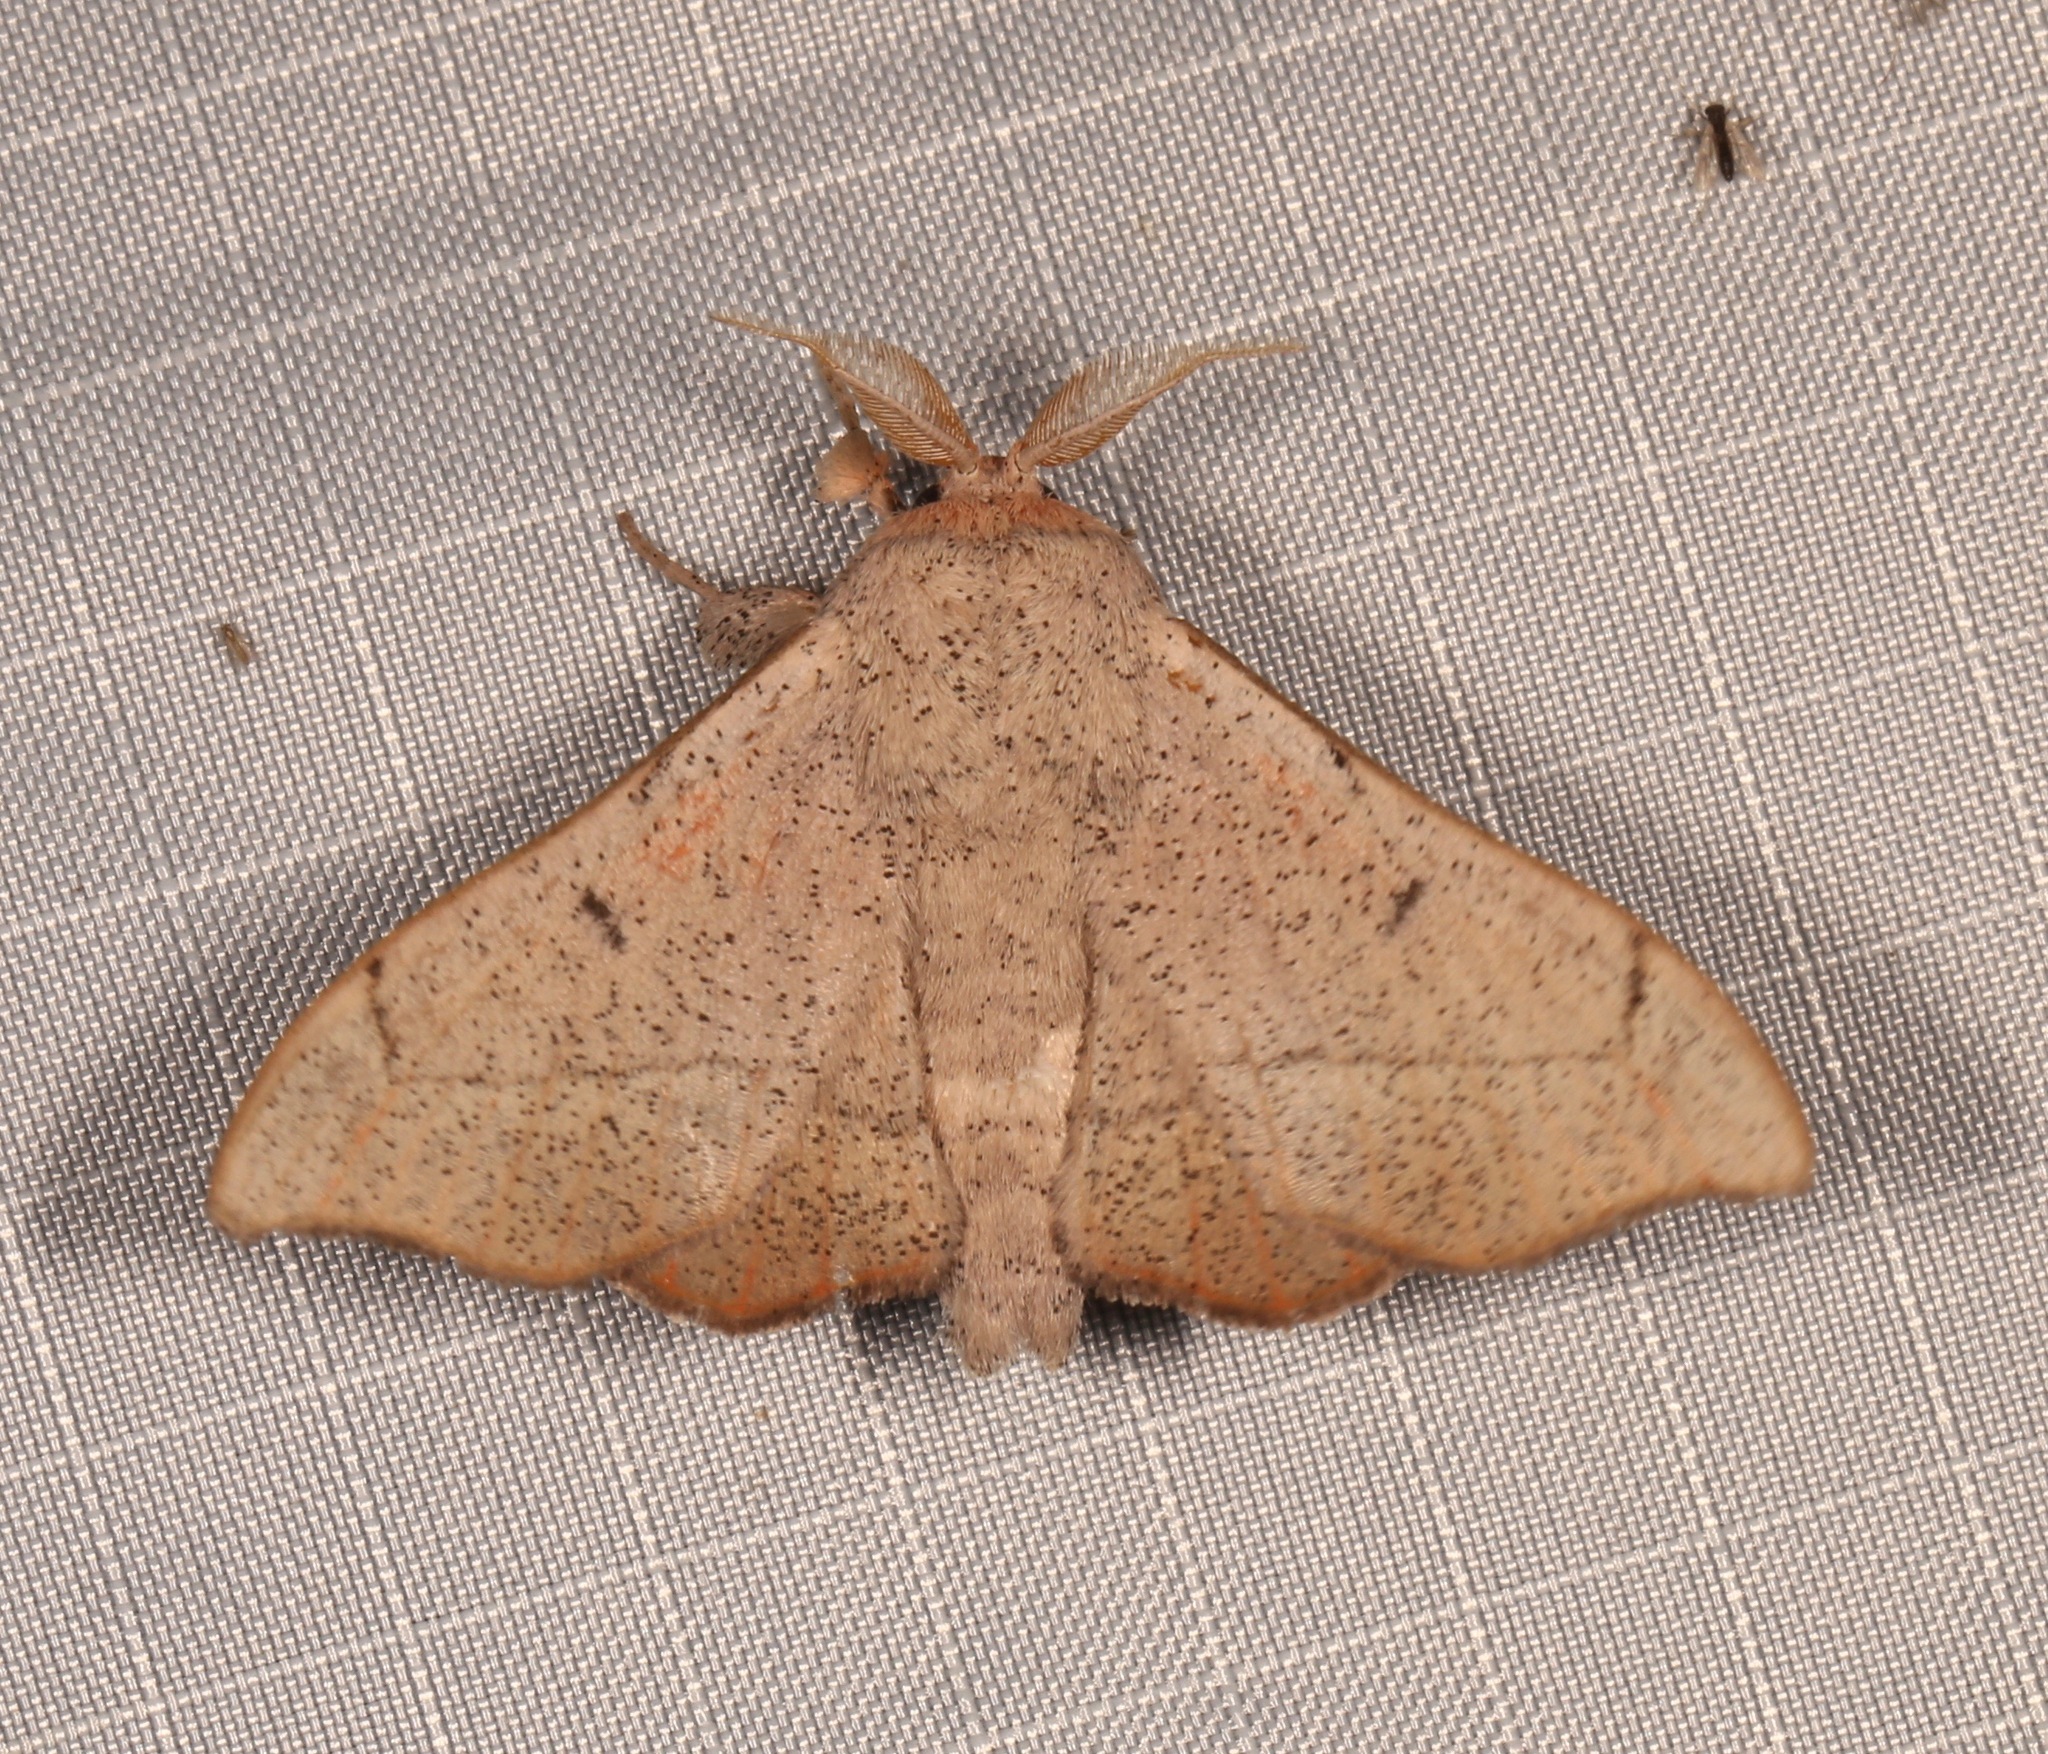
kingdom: Animalia
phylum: Arthropoda
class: Insecta
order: Lepidoptera
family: Mimallonidae
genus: Cicinnus
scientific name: Cicinnus melsheimeri
